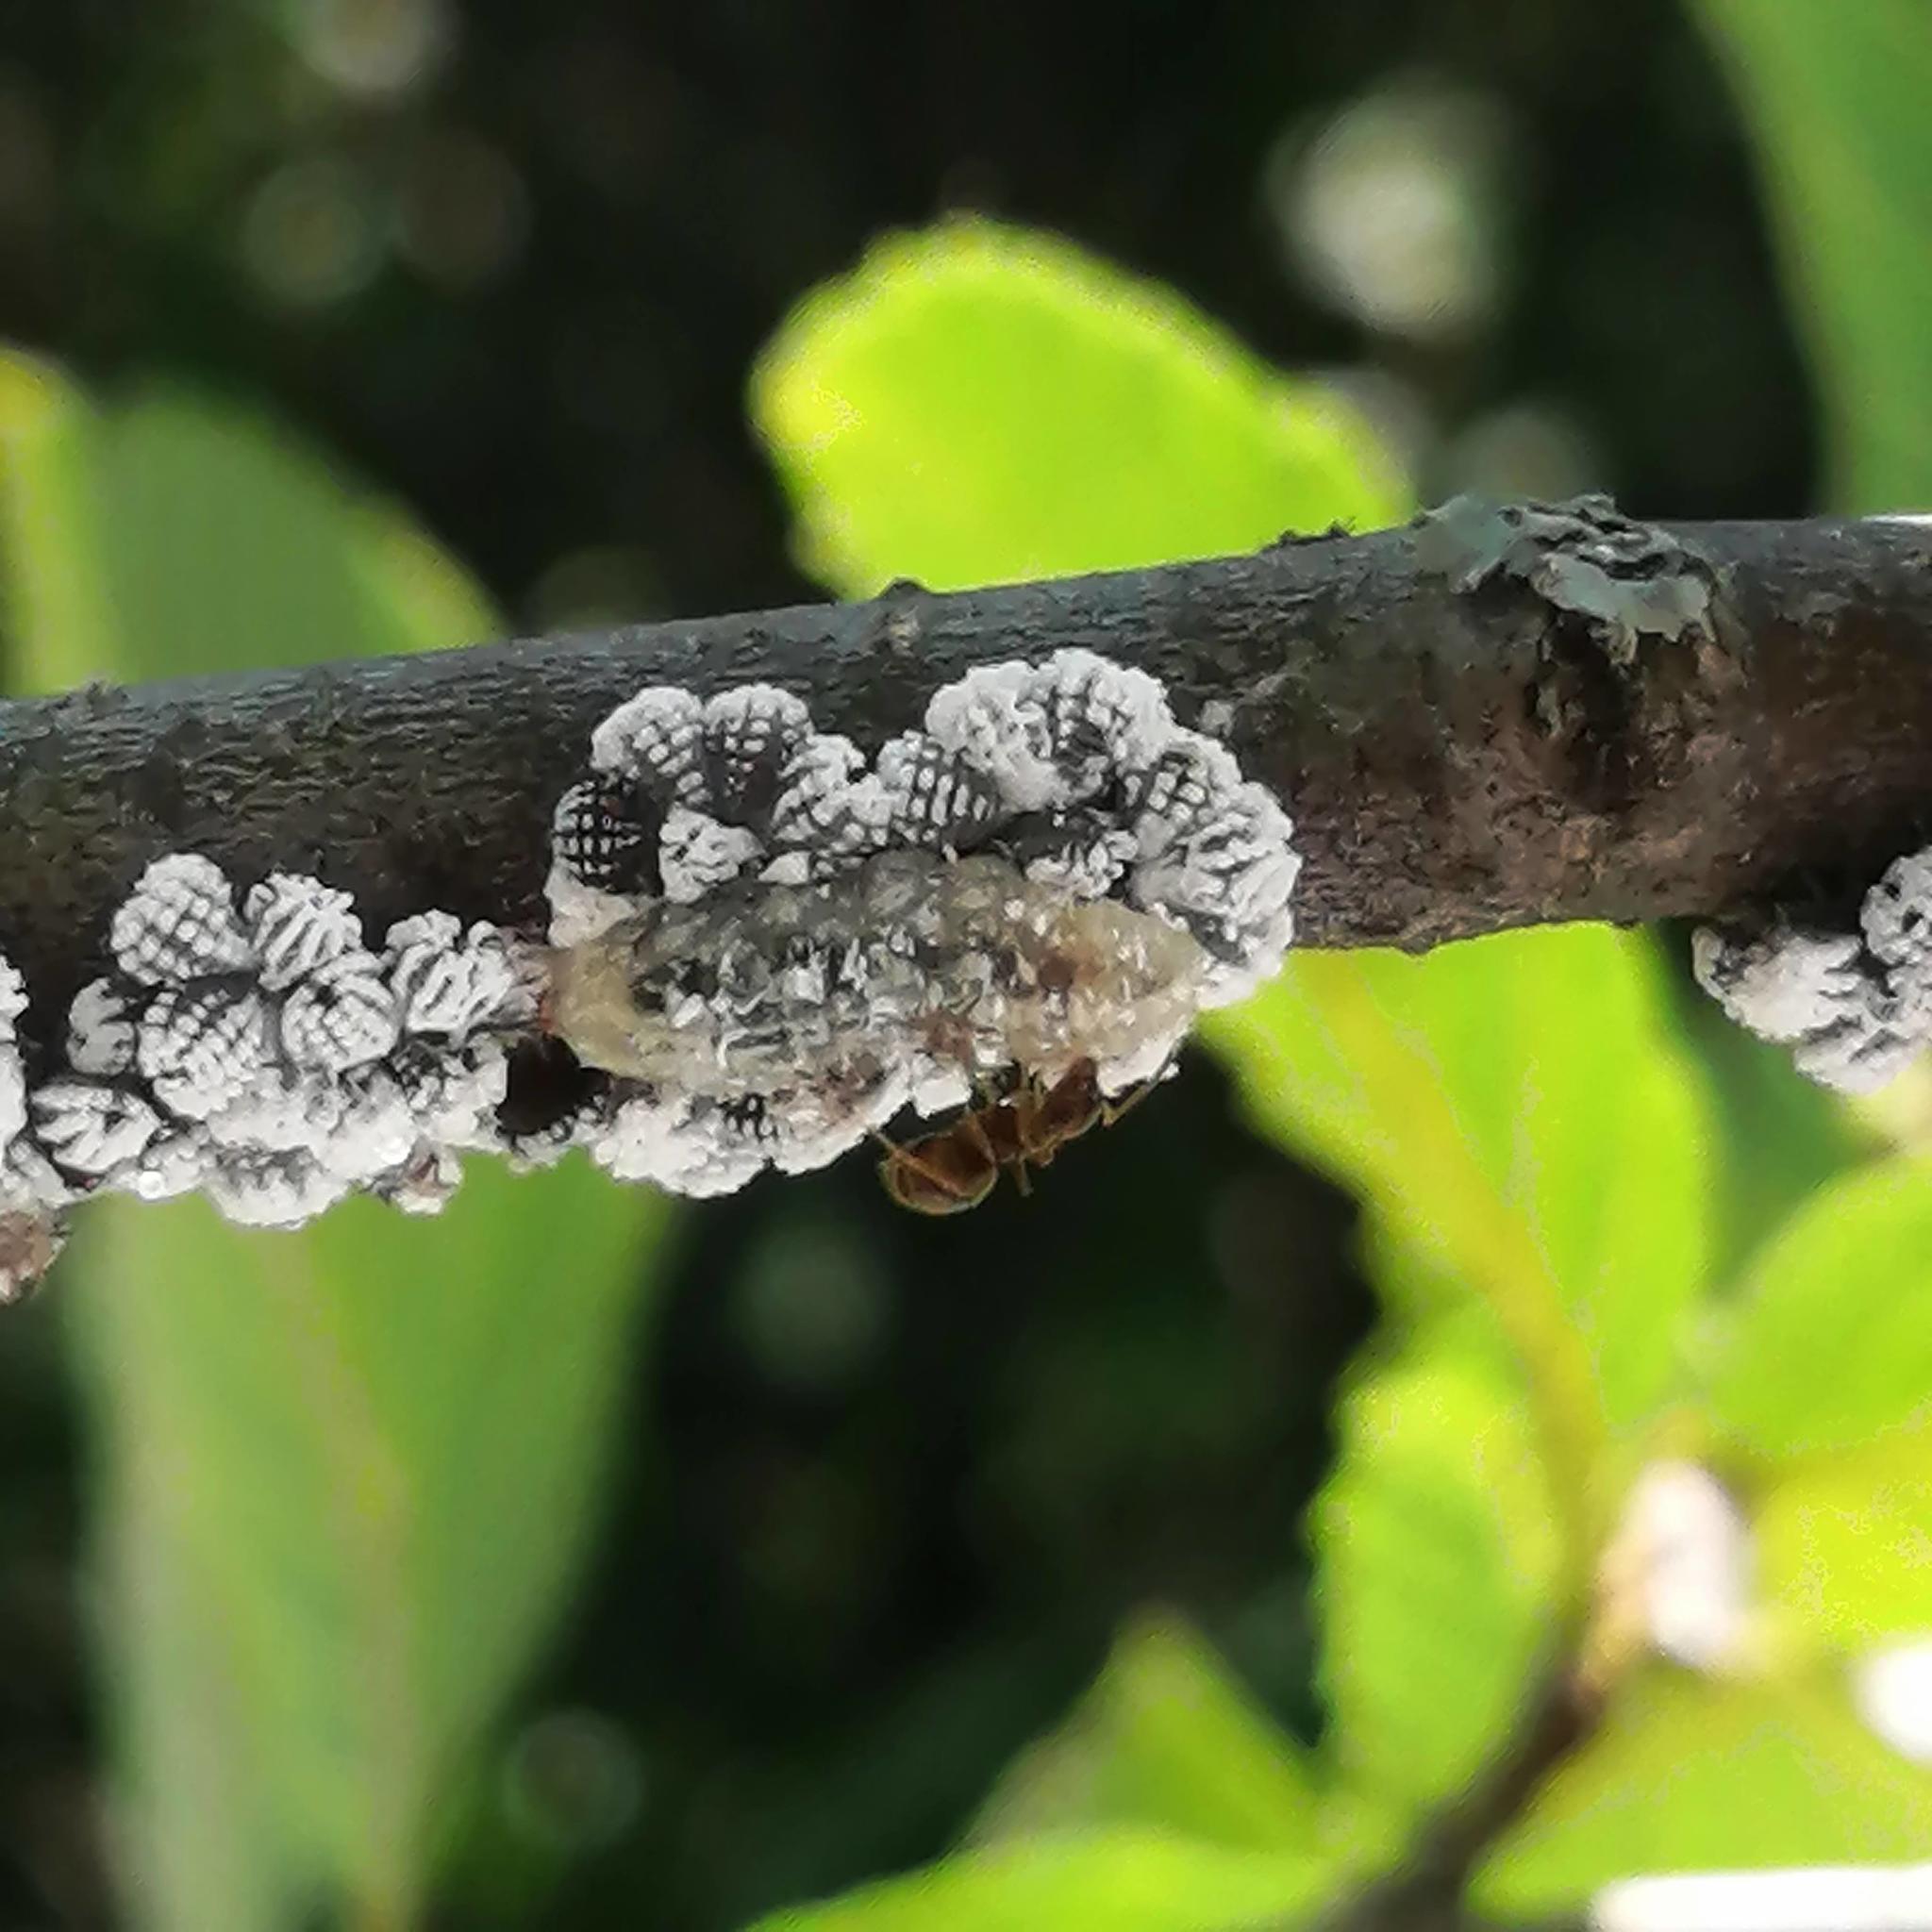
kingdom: Animalia
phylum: Arthropoda
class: Insecta
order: Diptera
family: Syrphidae
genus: Syrphus
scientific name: Syrphus
